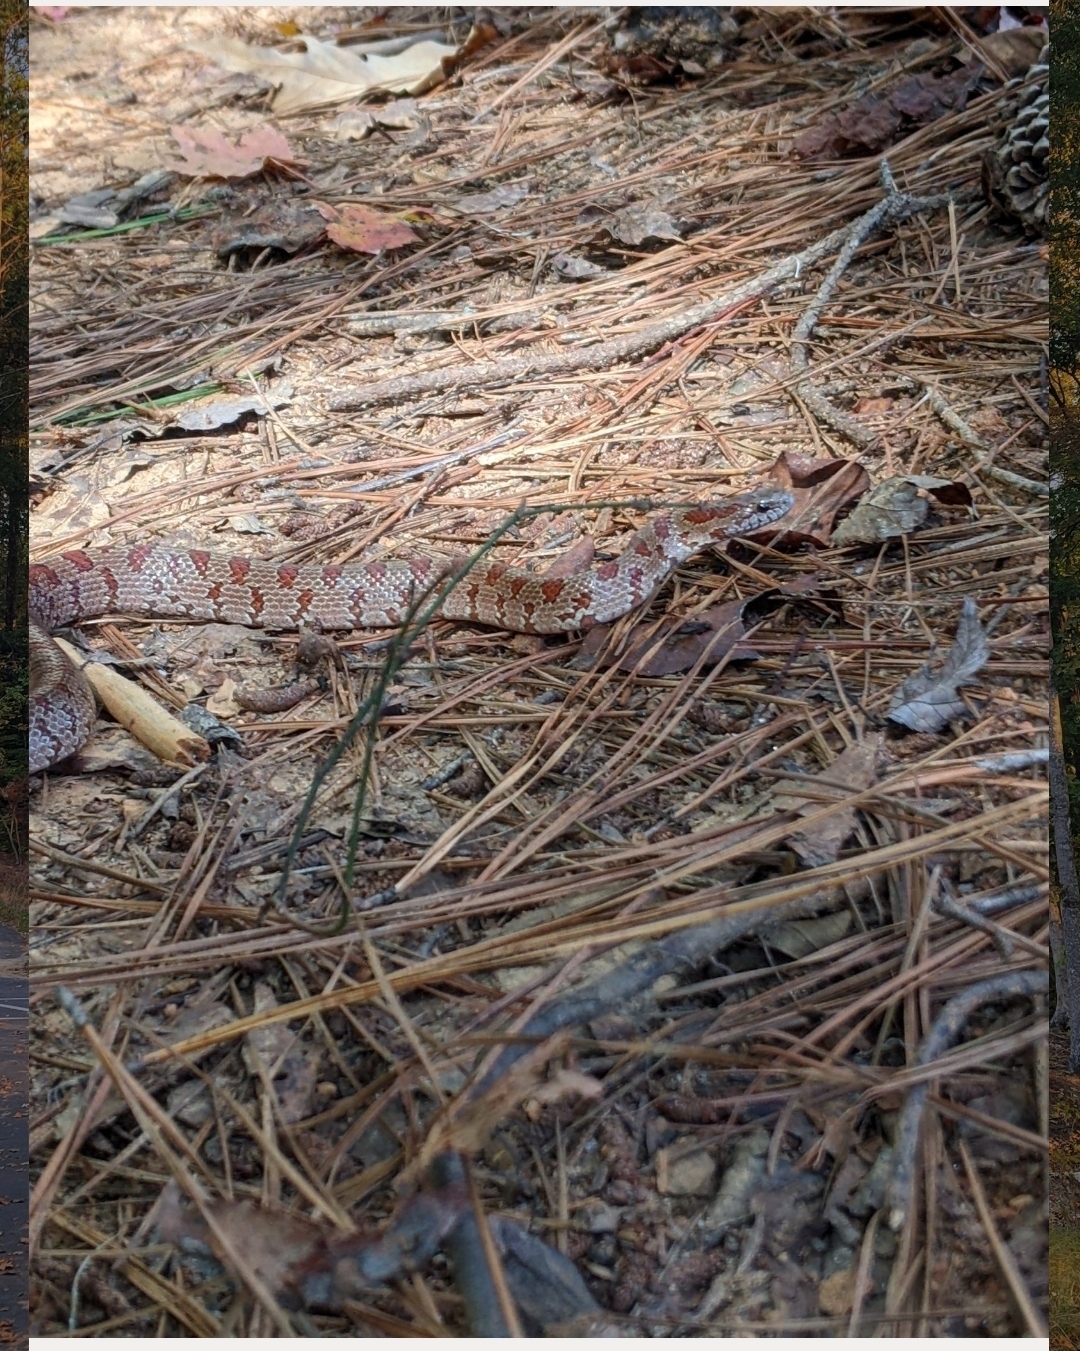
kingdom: Animalia
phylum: Chordata
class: Squamata
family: Colubridae
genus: Lampropeltis
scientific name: Lampropeltis rhombomaculata
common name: Mole kingsnake
